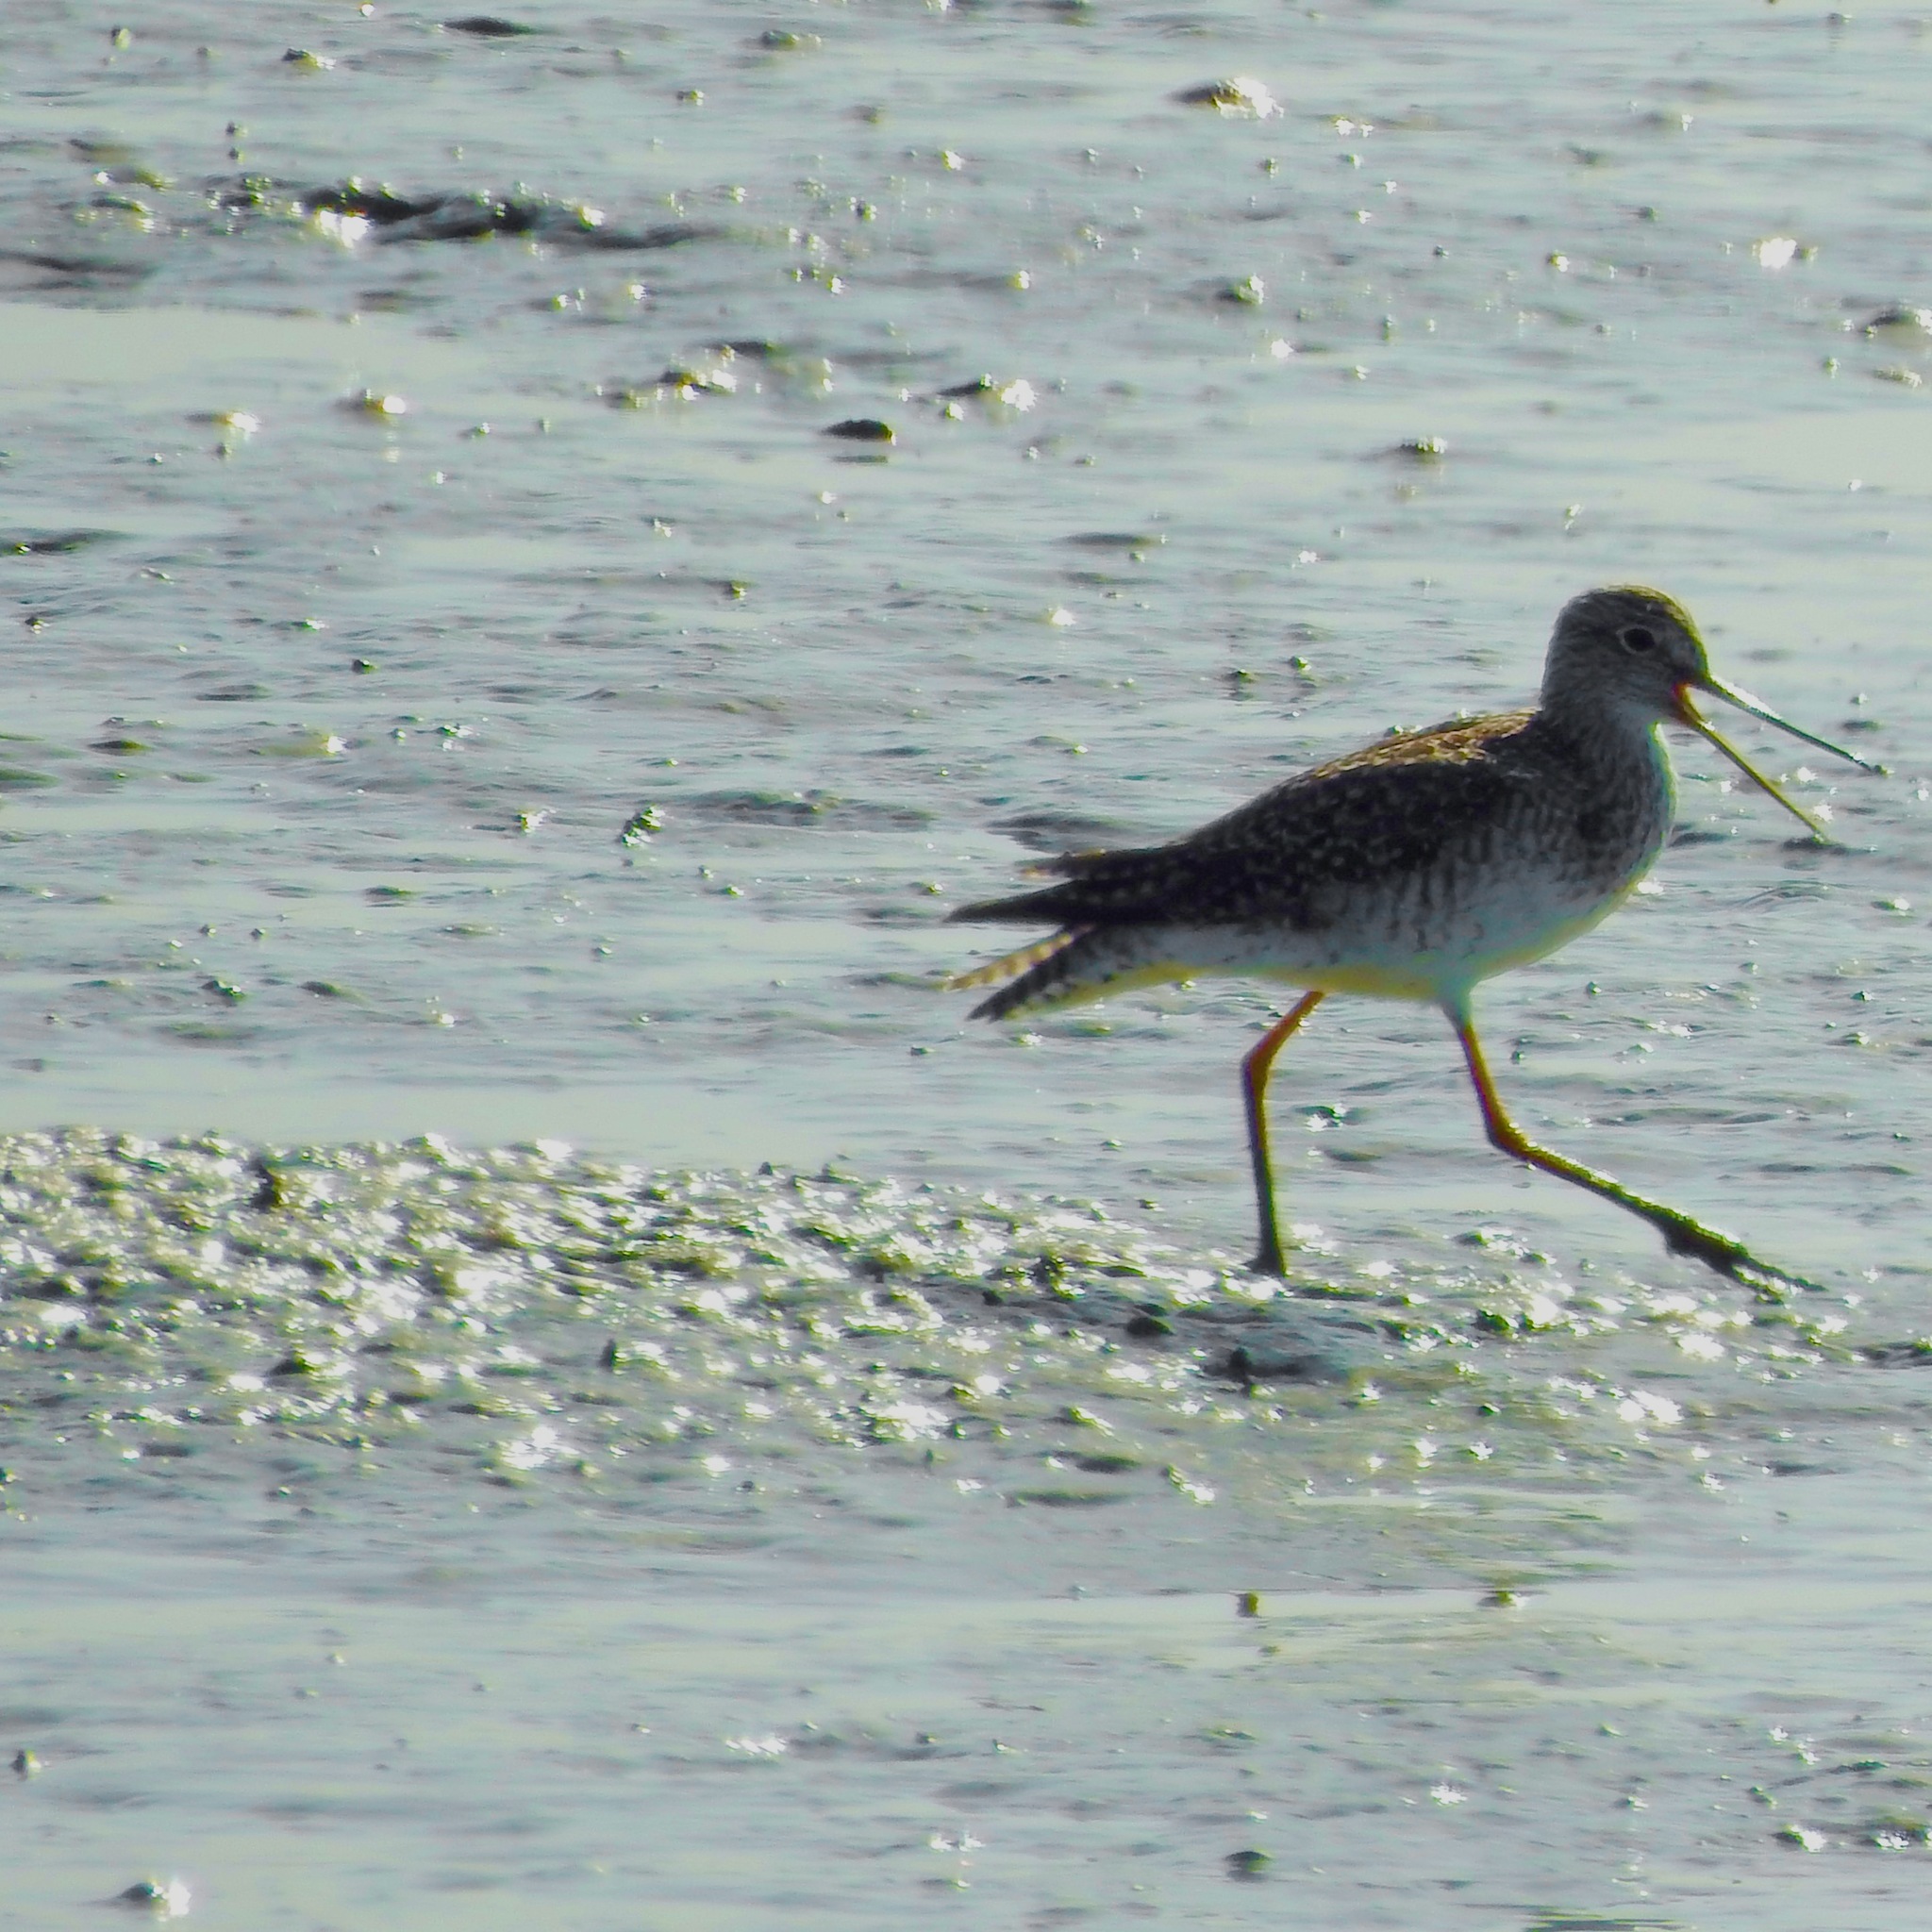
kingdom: Animalia
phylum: Chordata
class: Aves
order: Charadriiformes
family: Scolopacidae
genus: Tringa
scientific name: Tringa melanoleuca
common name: Greater yellowlegs
